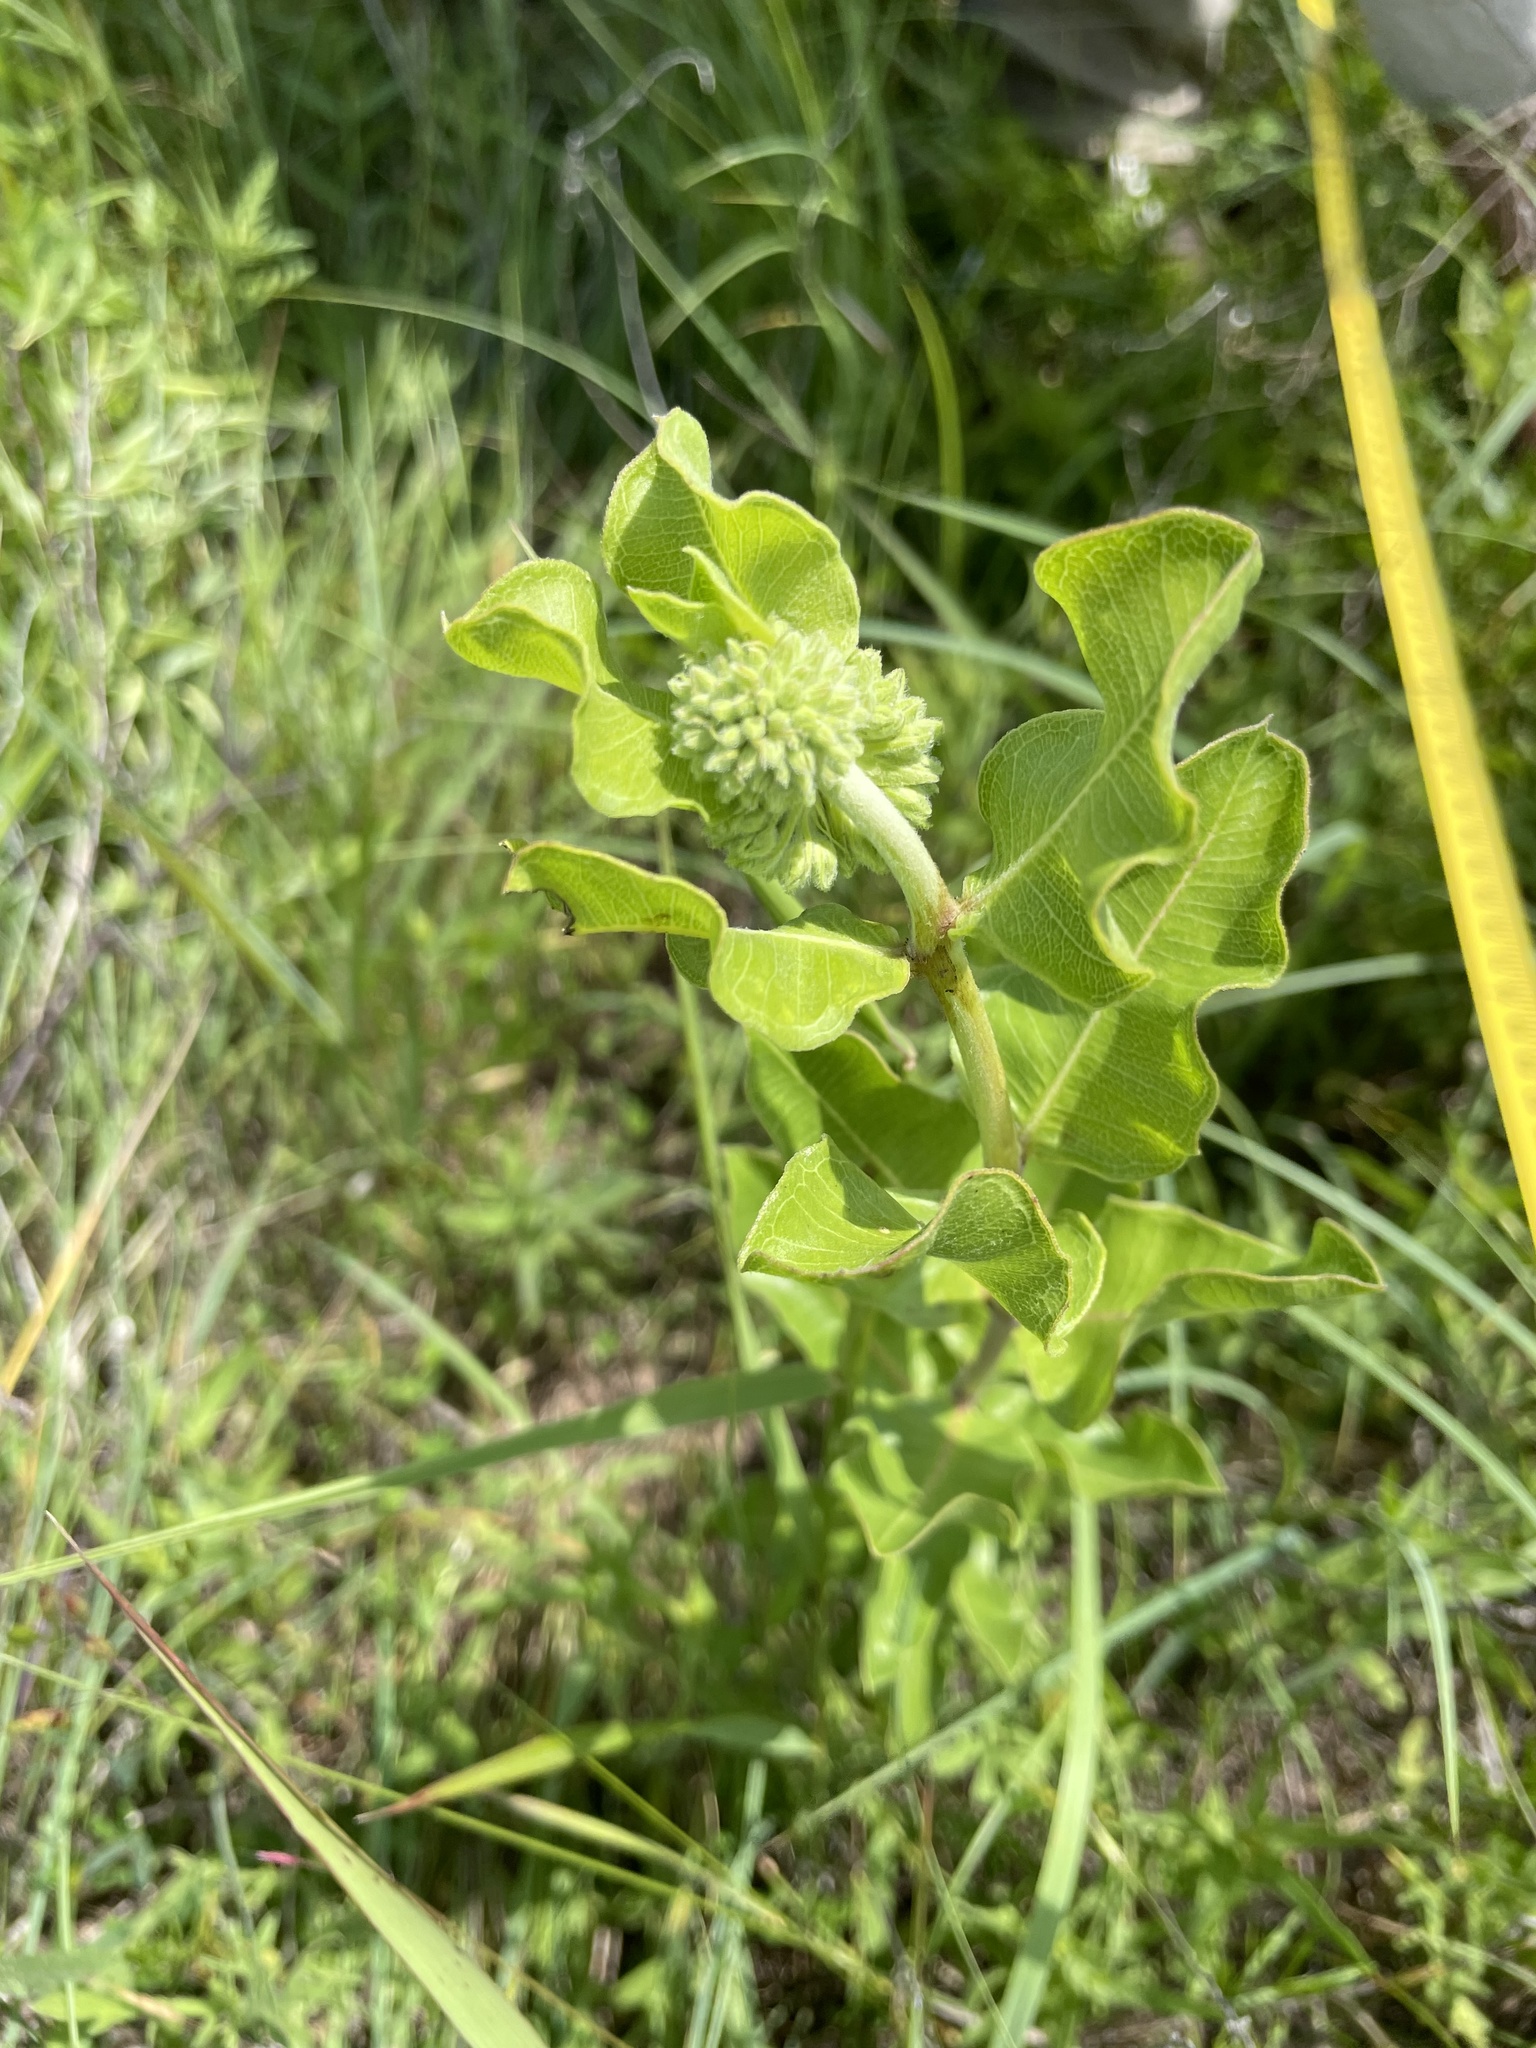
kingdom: Plantae
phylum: Tracheophyta
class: Magnoliopsida
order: Gentianales
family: Apocynaceae
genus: Asclepias
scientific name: Asclepias viridiflora
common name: Green comet milkweed
